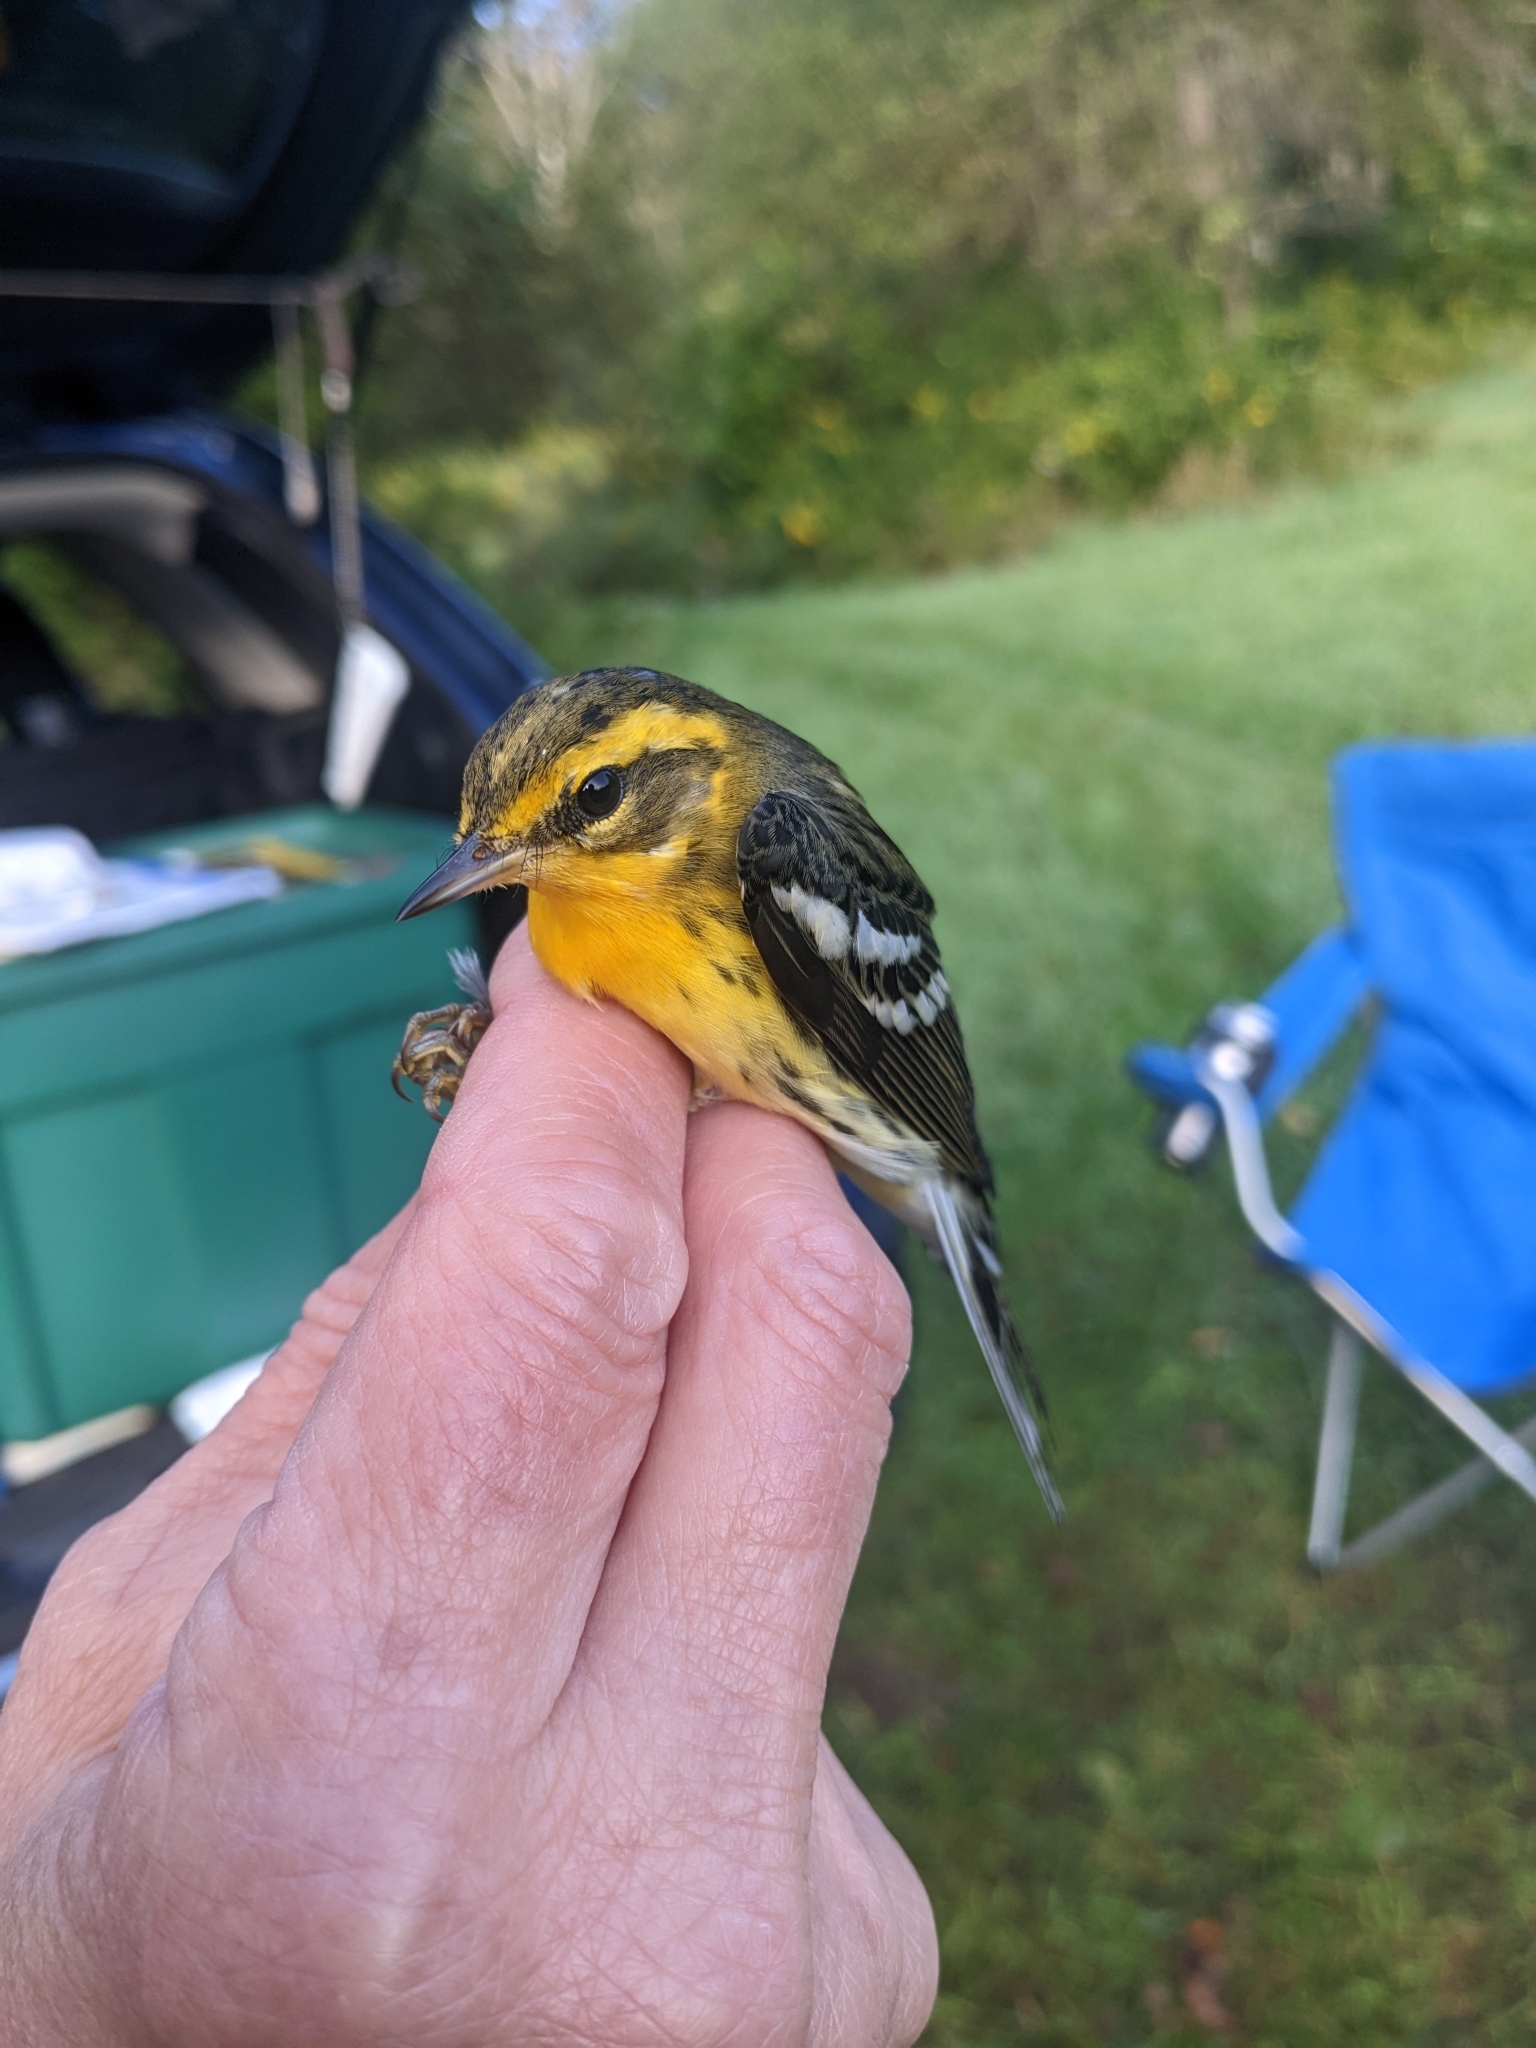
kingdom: Animalia
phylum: Chordata
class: Aves
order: Passeriformes
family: Parulidae
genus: Setophaga
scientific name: Setophaga fusca
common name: Blackburnian warbler
